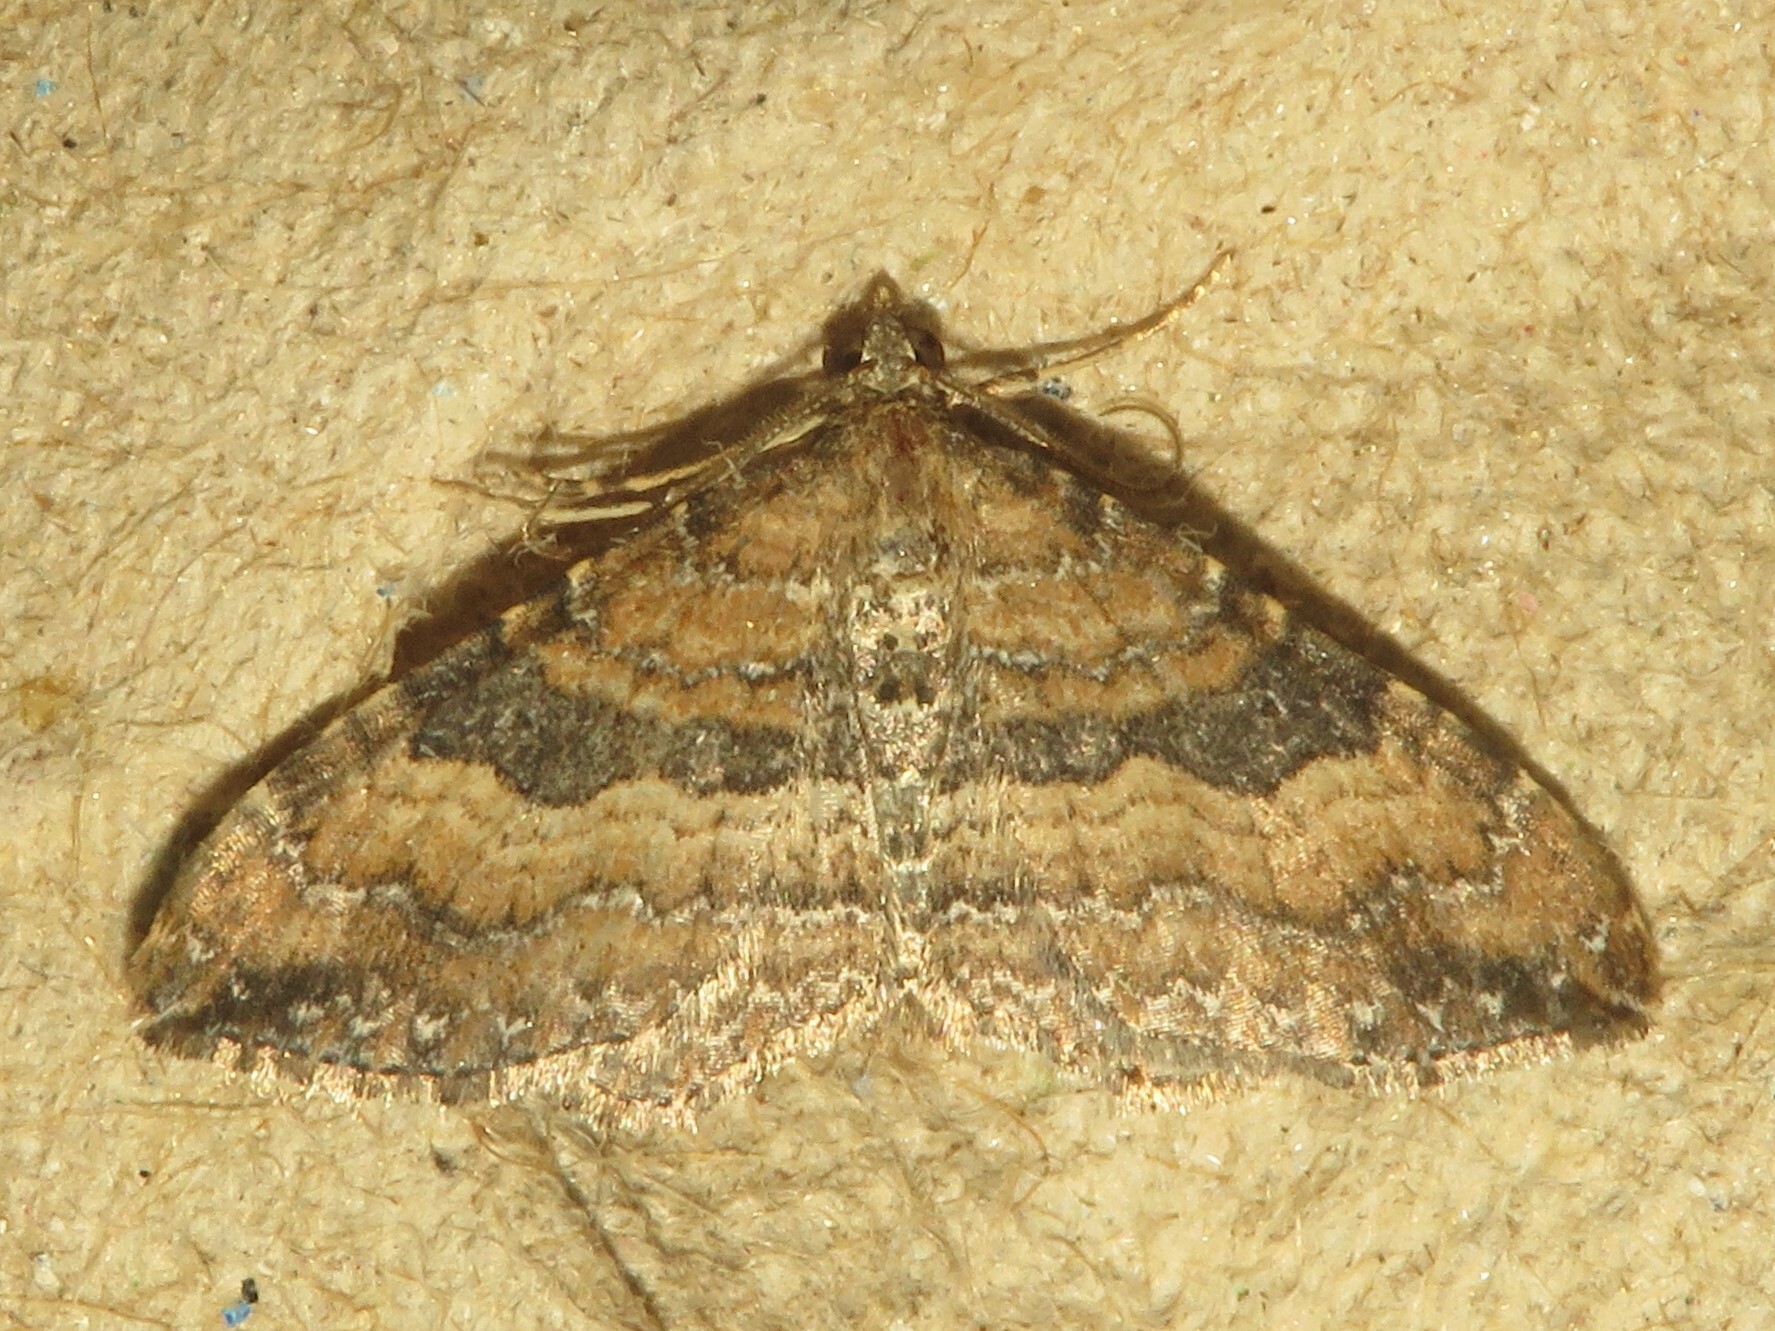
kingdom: Animalia
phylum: Arthropoda
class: Insecta
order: Lepidoptera
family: Geometridae
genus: Orthonama
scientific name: Orthonama obstipata
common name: The gem
